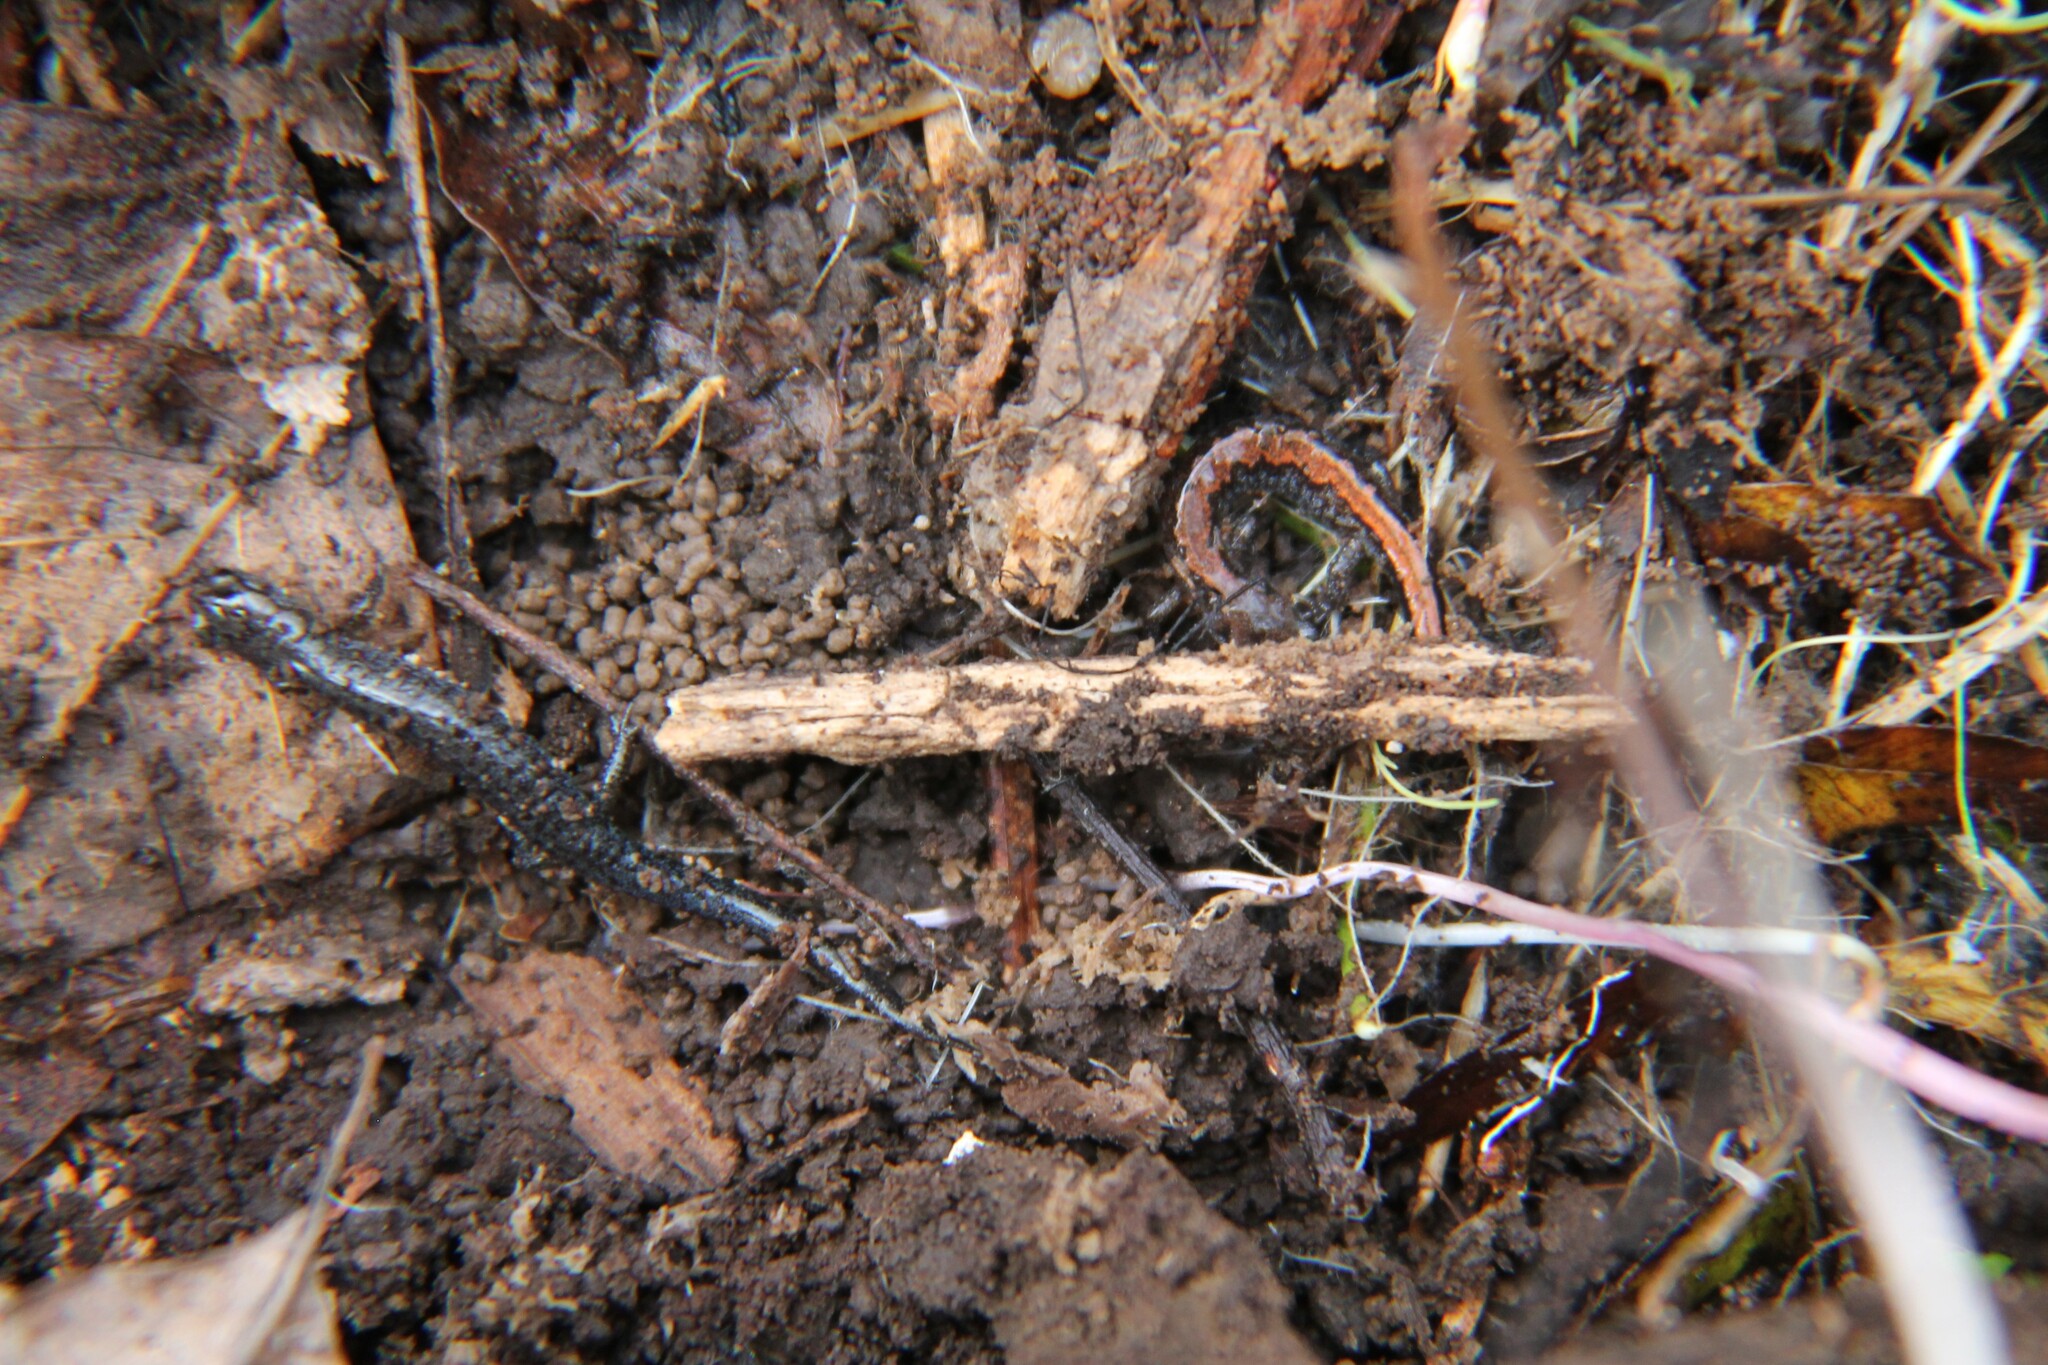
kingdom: Animalia
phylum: Chordata
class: Amphibia
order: Caudata
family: Plethodontidae
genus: Plethodon
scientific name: Plethodon dorsalis
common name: Northern zigzag salamander
